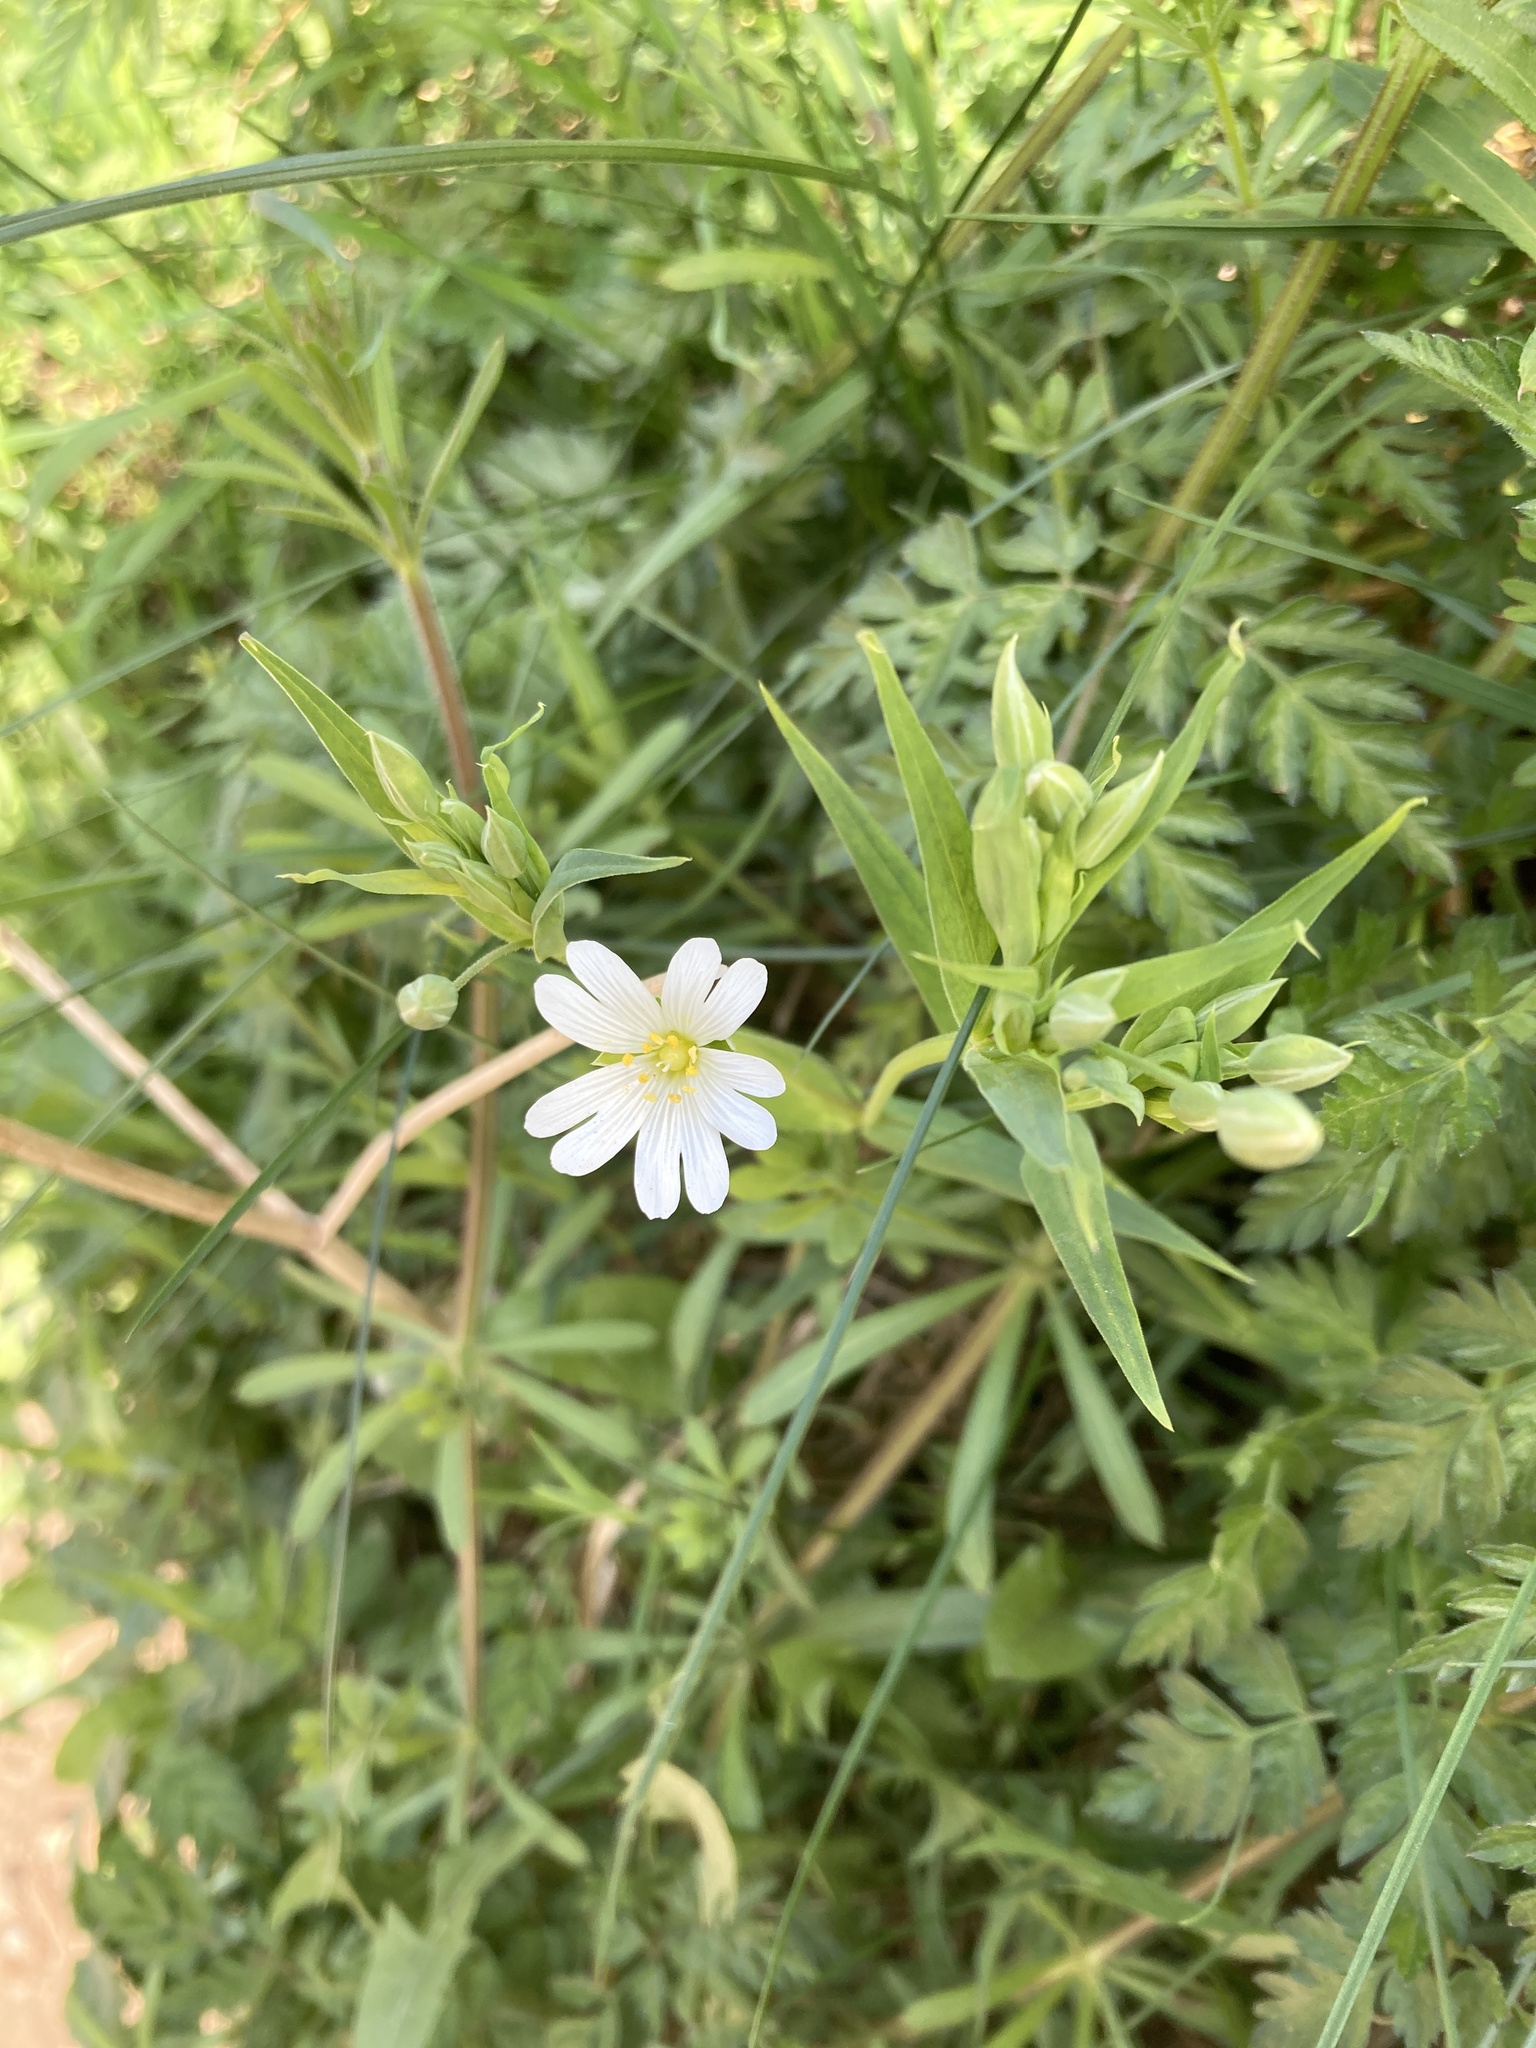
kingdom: Plantae
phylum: Tracheophyta
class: Magnoliopsida
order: Caryophyllales
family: Caryophyllaceae
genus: Rabelera
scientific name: Rabelera holostea
